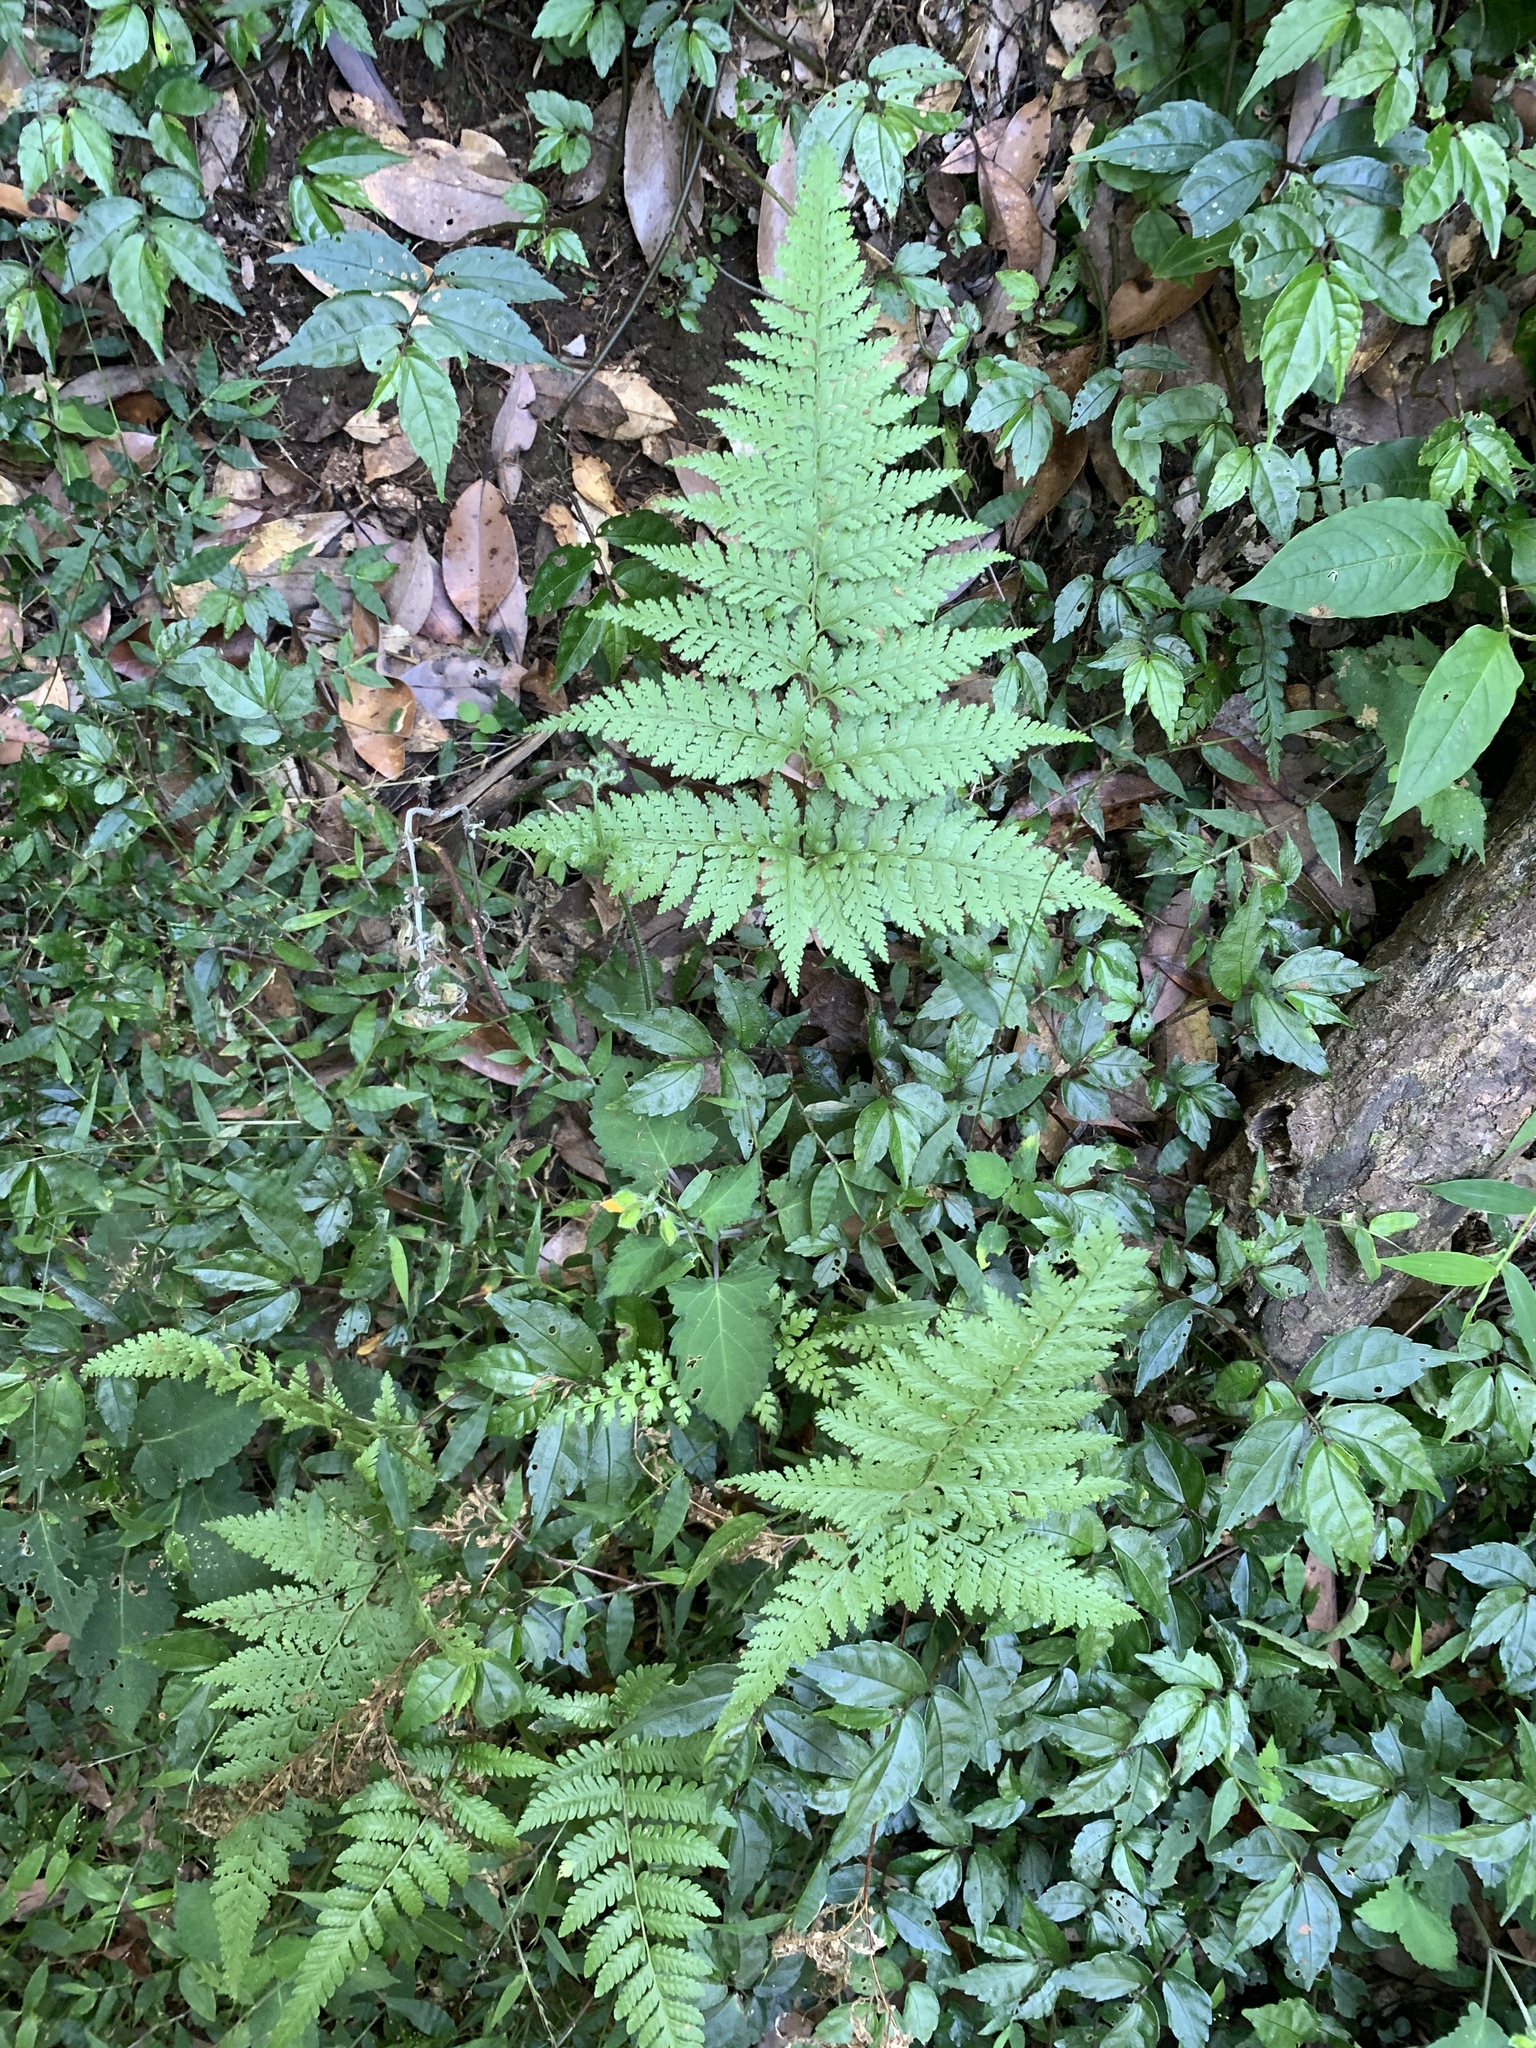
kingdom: Plantae
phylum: Tracheophyta
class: Polypodiopsida
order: Polypodiales
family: Dennstaedtiaceae
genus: Sitobolium
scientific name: Sitobolium zeylanicum
